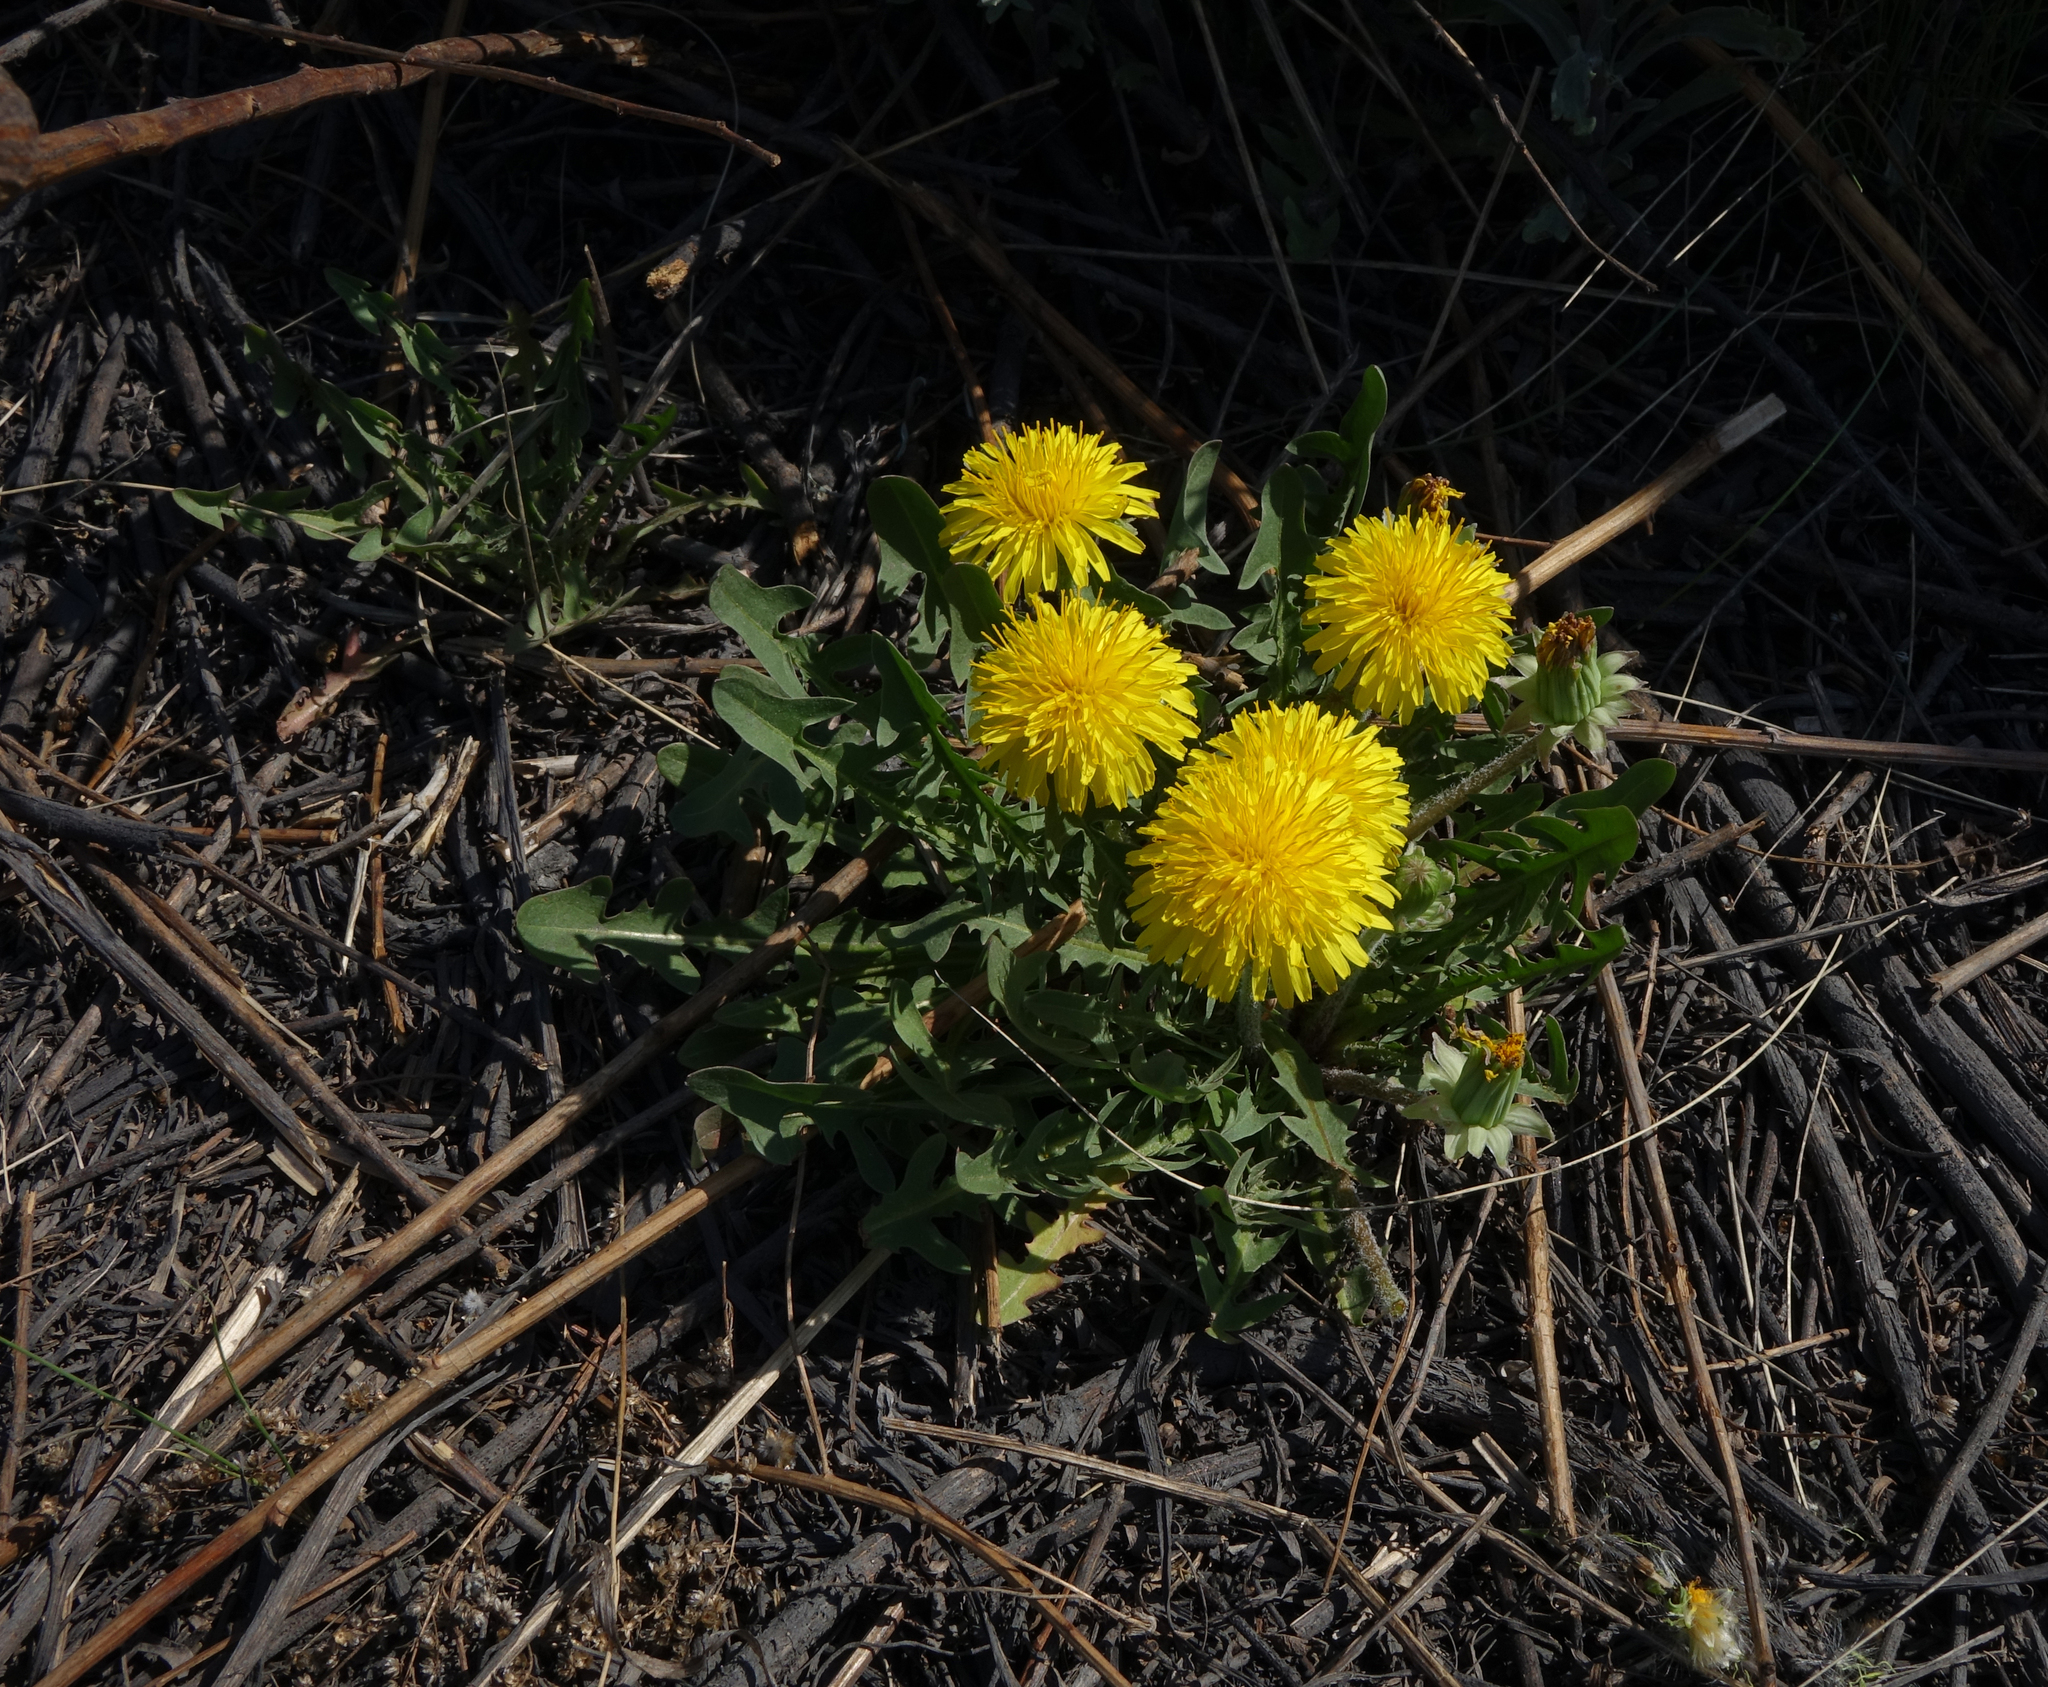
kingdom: Plantae
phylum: Tracheophyta
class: Magnoliopsida
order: Asterales
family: Asteraceae
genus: Taraxacum
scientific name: Taraxacum officinale
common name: Common dandelion
